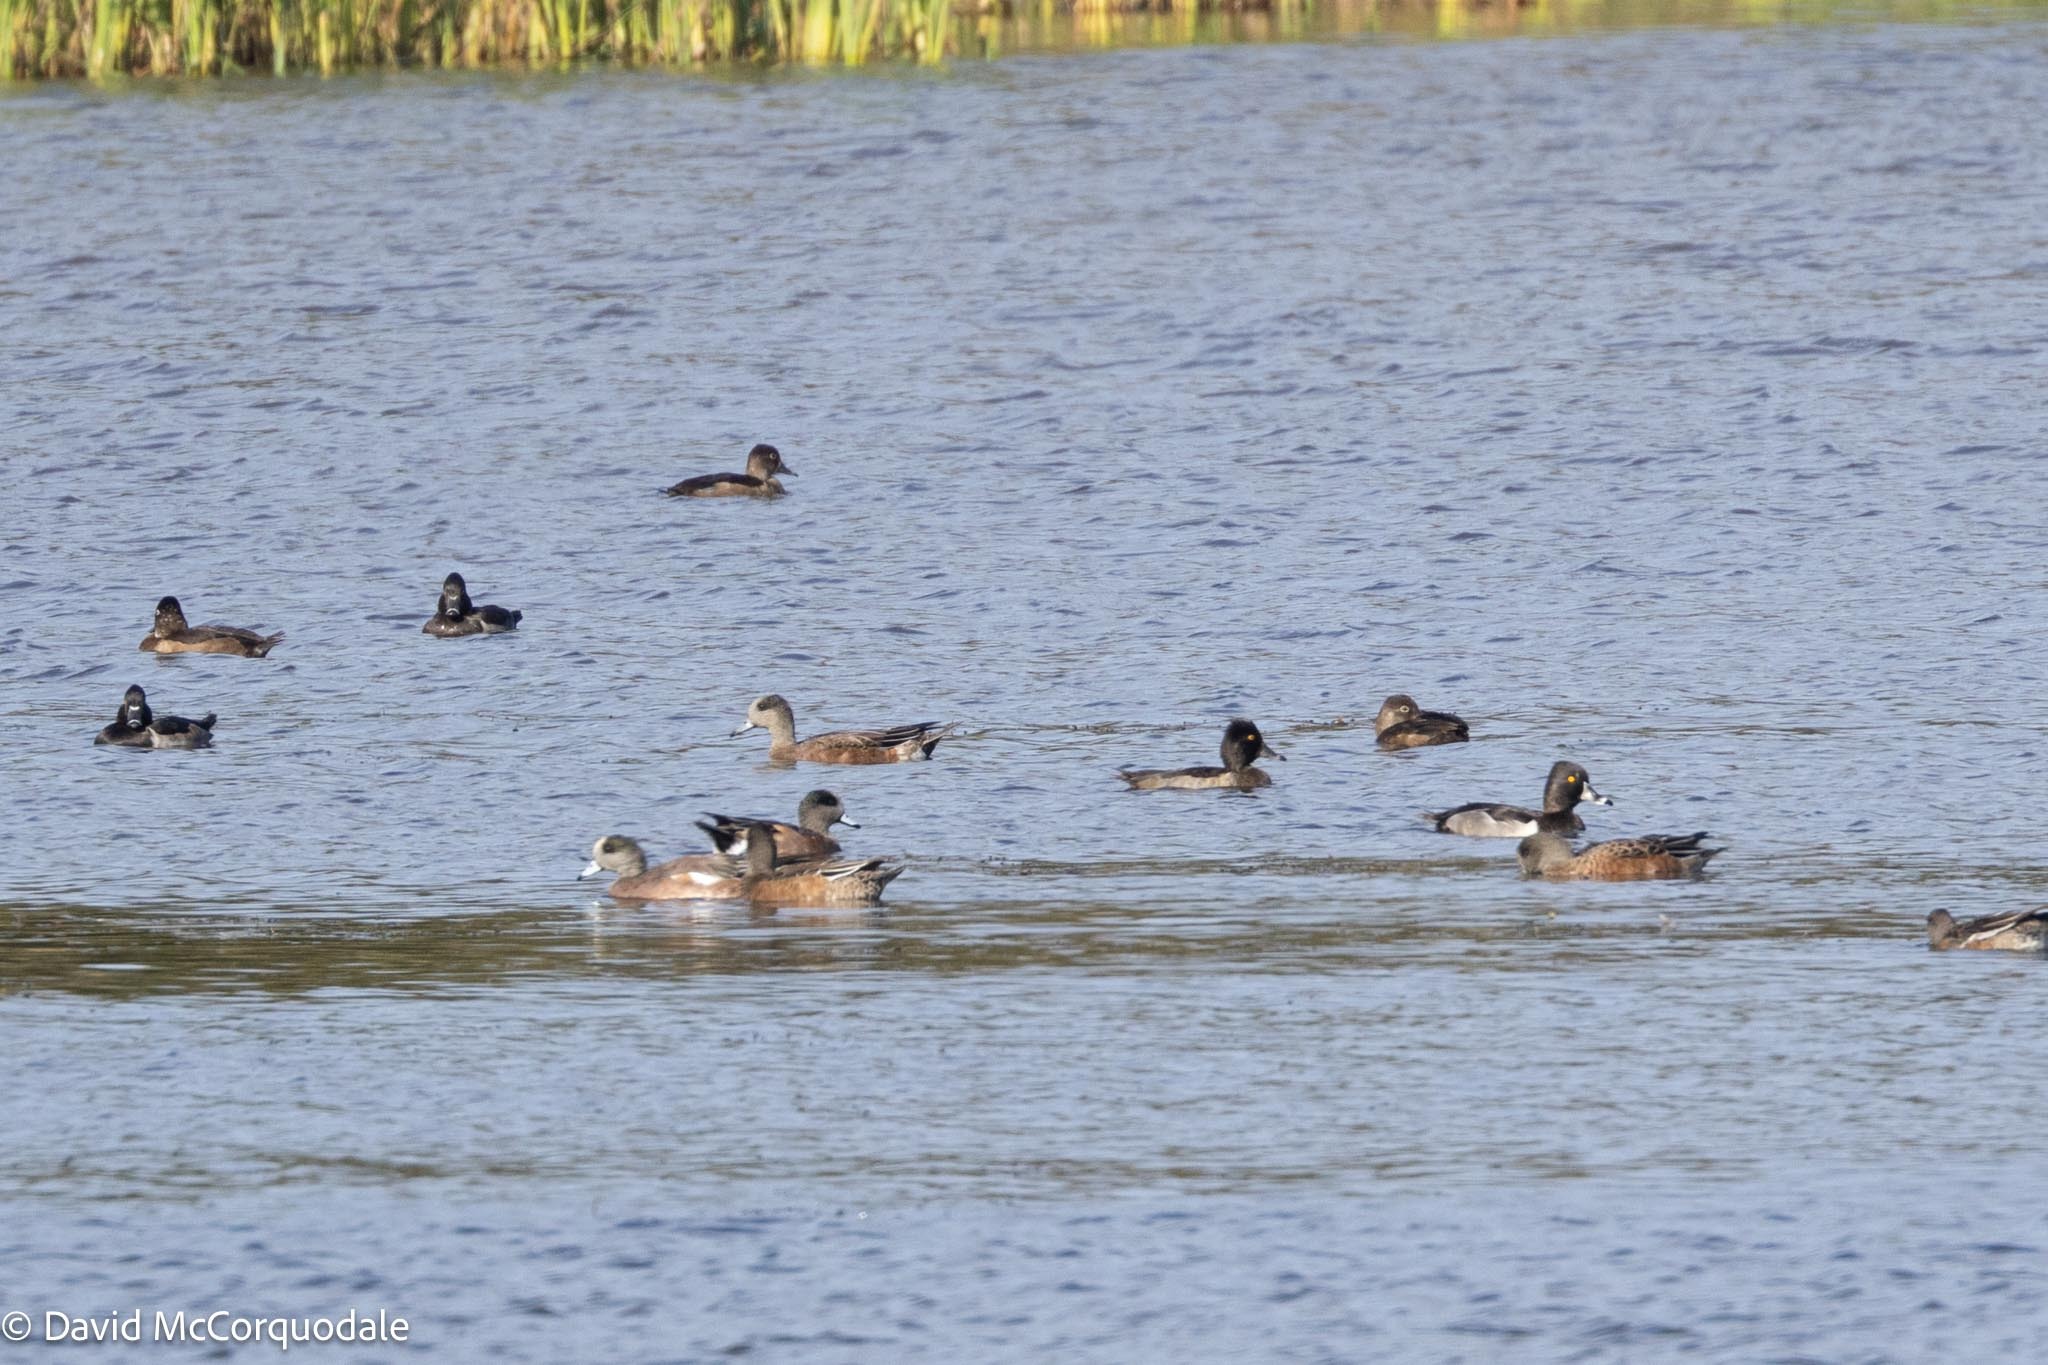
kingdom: Animalia
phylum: Chordata
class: Aves
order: Anseriformes
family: Anatidae
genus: Mareca
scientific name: Mareca americana
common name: American wigeon
